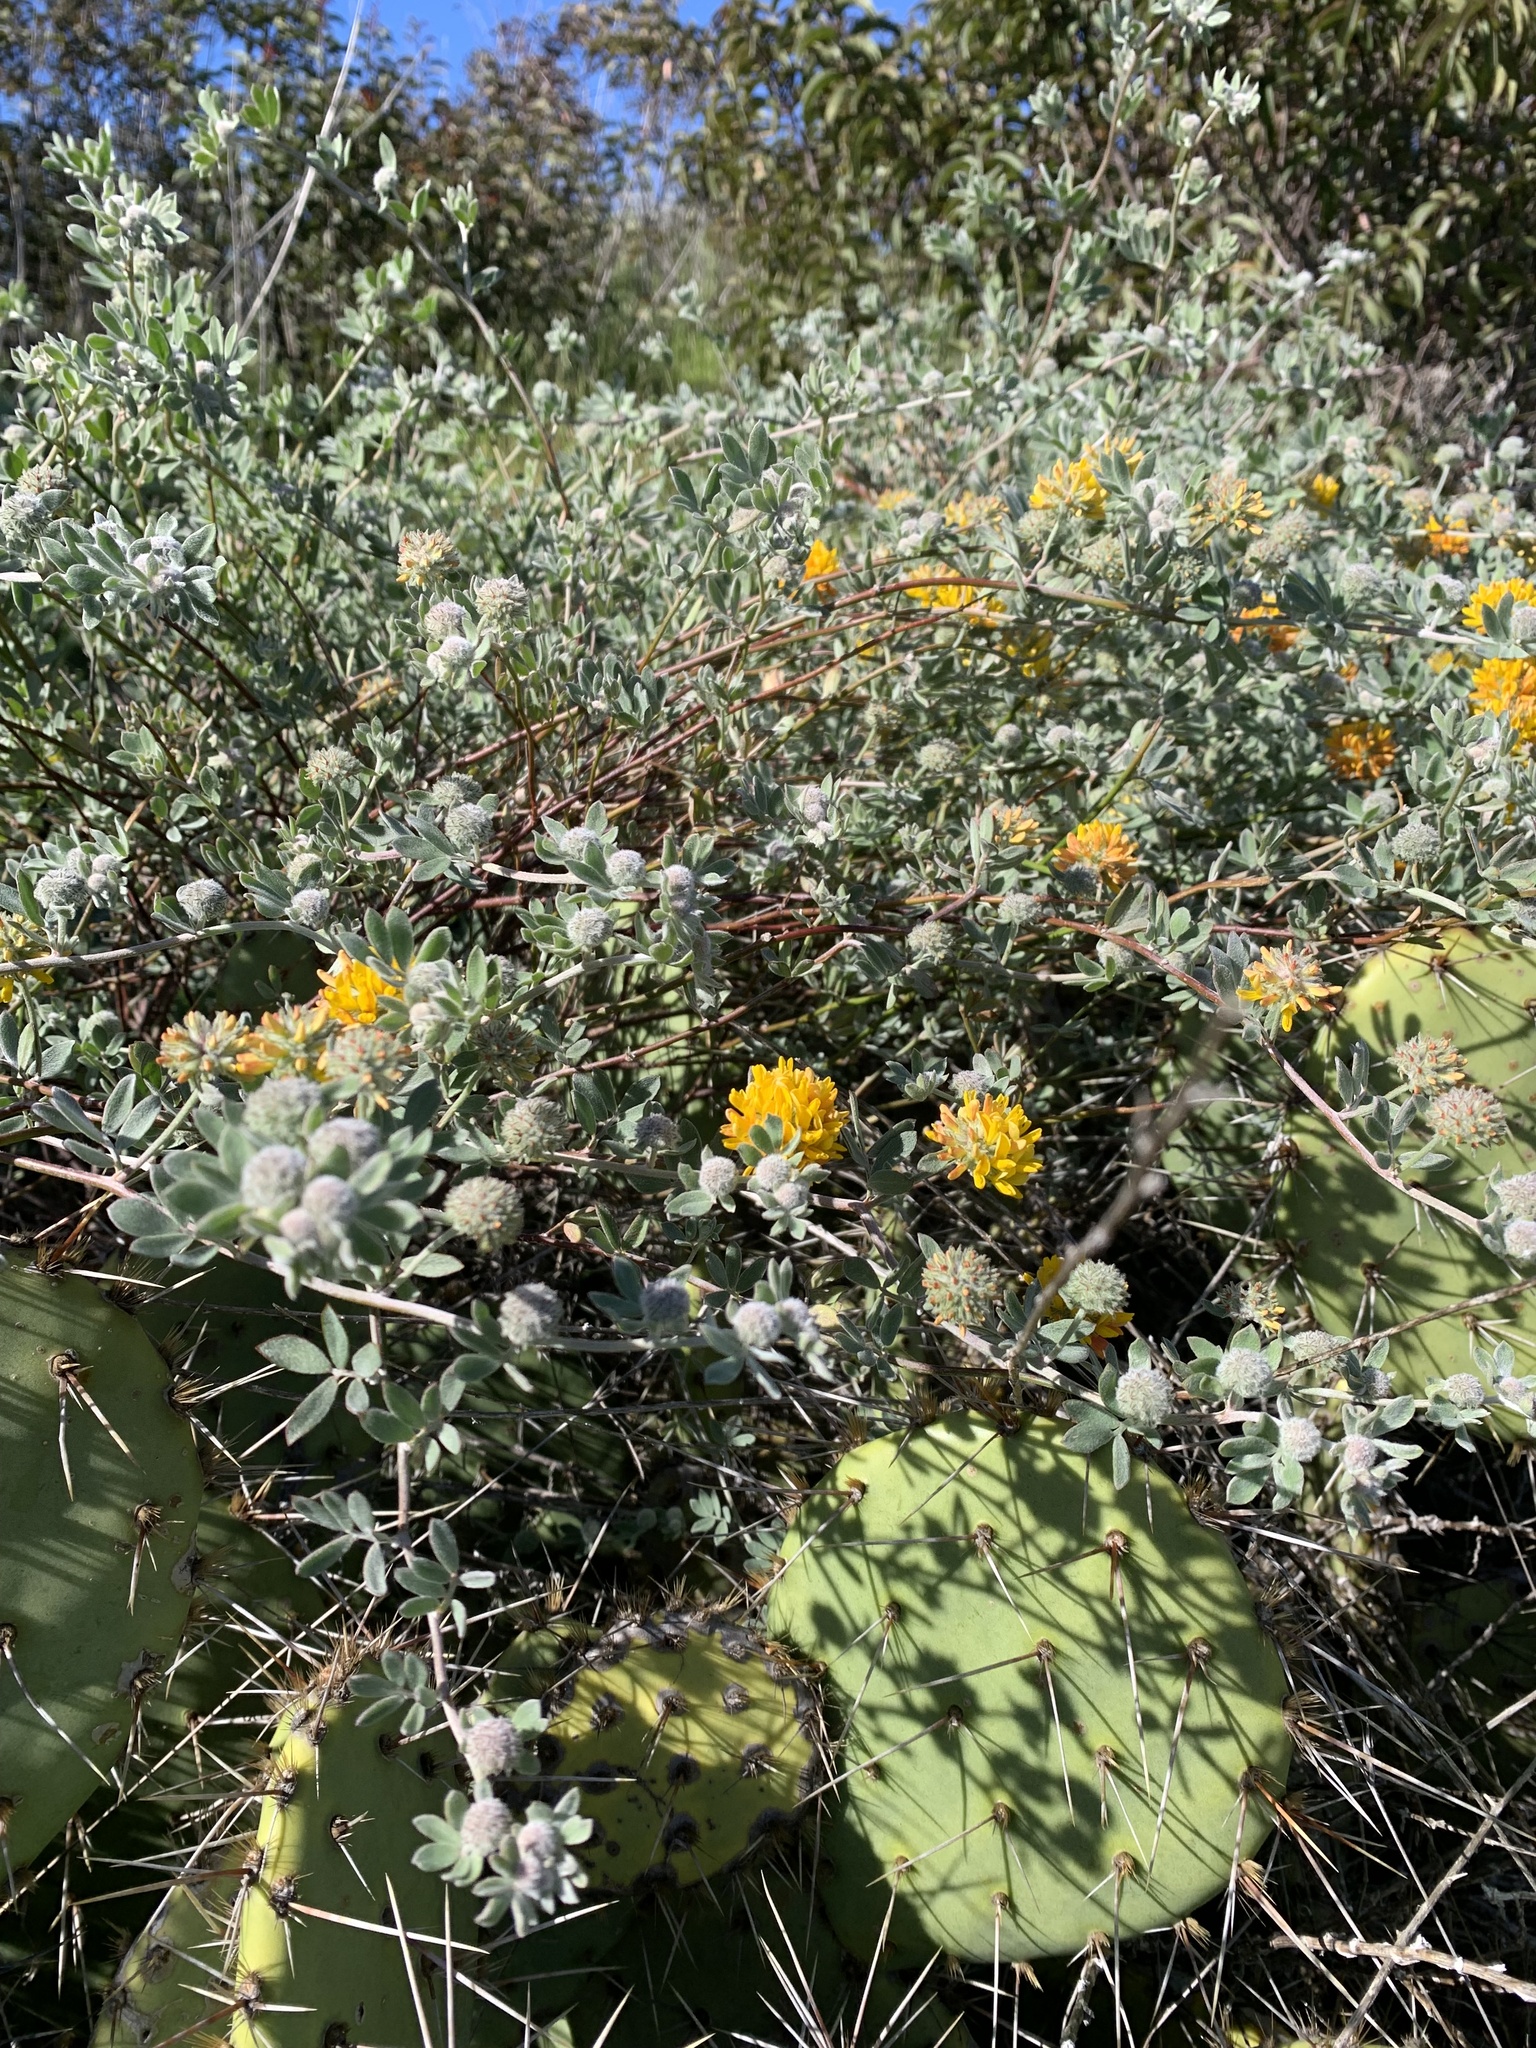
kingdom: Plantae
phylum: Tracheophyta
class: Magnoliopsida
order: Fabales
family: Fabaceae
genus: Acmispon
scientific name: Acmispon argophyllus
